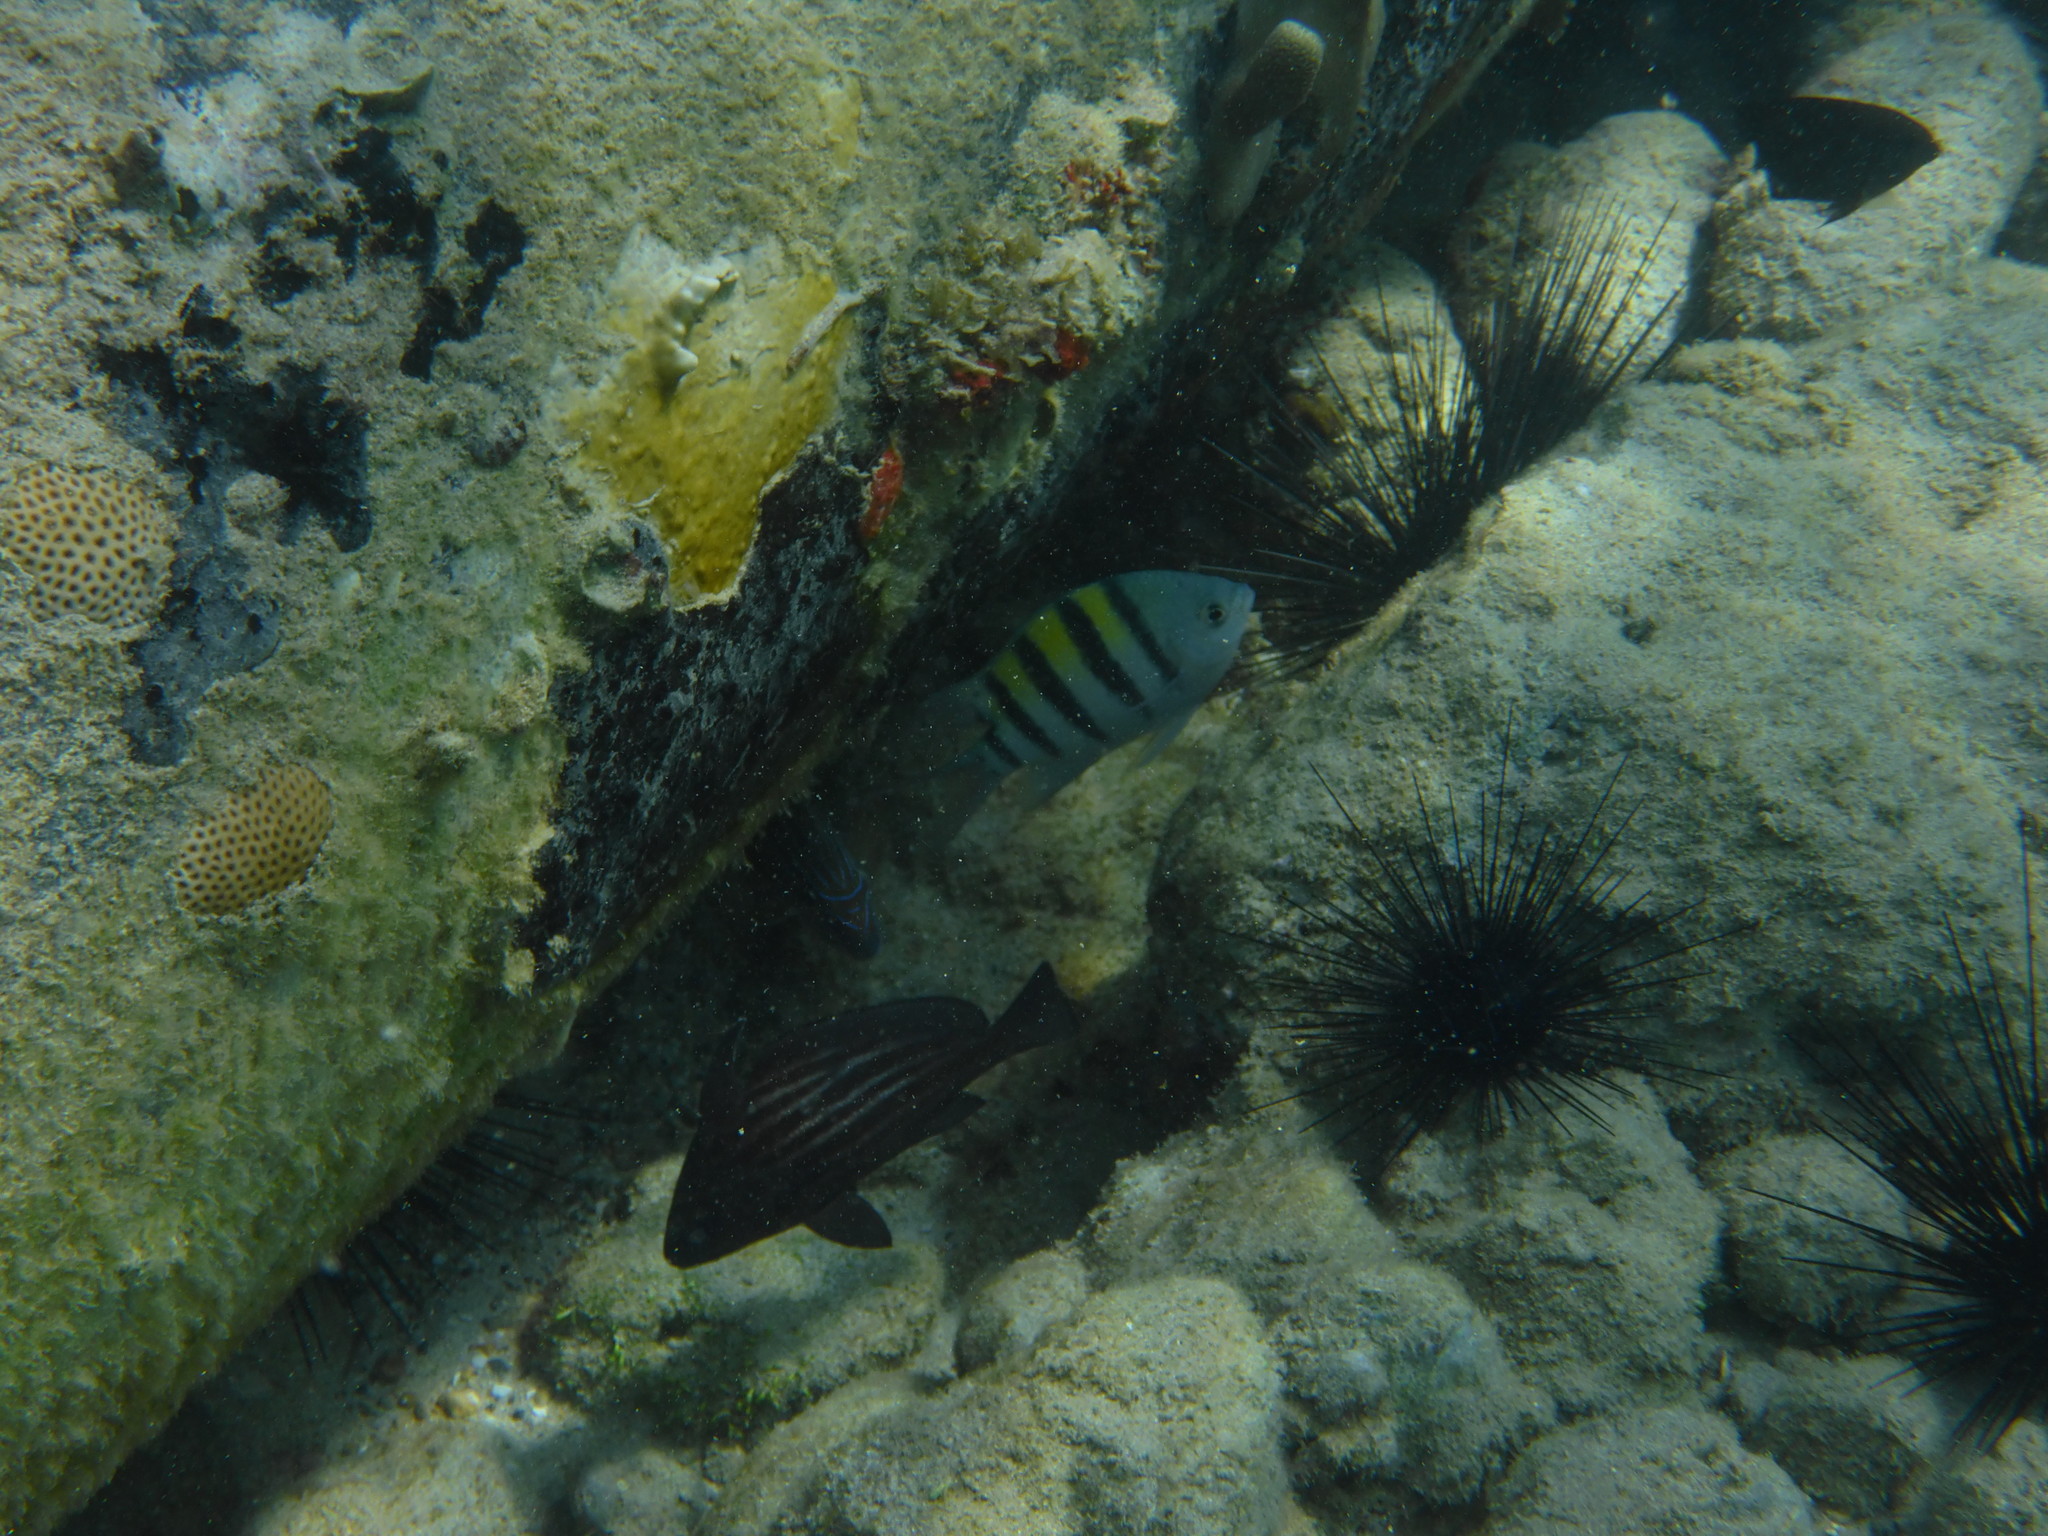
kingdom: Animalia
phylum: Chordata
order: Perciformes
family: Pomacentridae
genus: Abudefduf
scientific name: Abudefduf saxatilis
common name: Sergeant major
